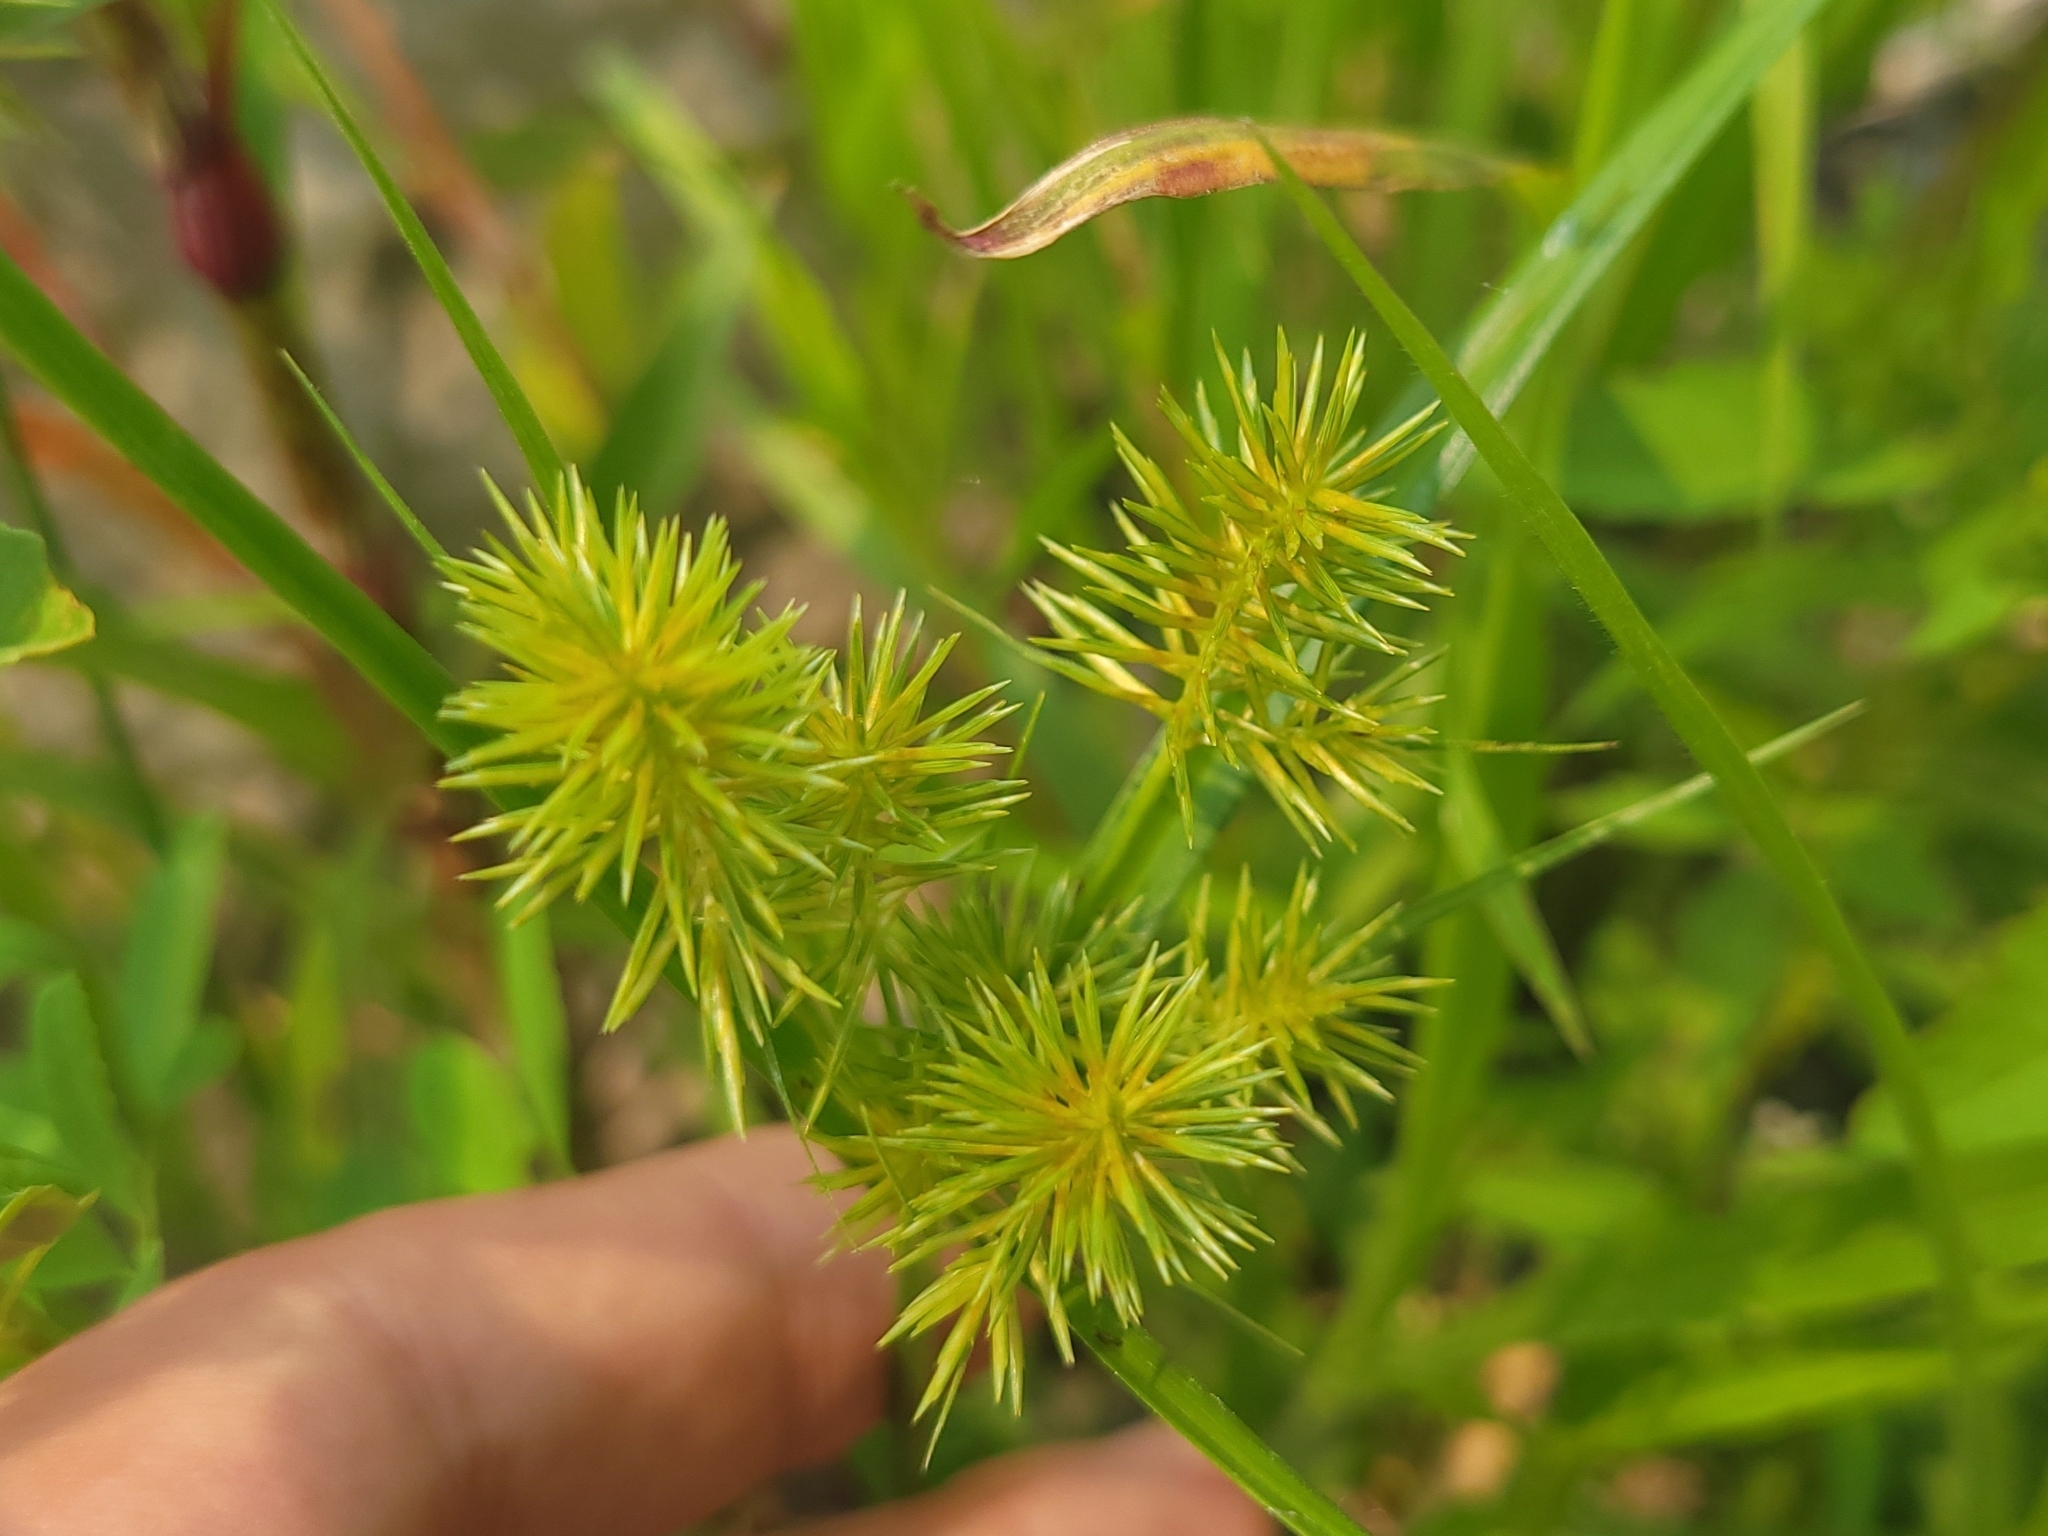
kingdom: Plantae
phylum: Tracheophyta
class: Liliopsida
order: Poales
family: Cyperaceae
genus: Cyperus
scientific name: Cyperus strigosus
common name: False nutsedge
